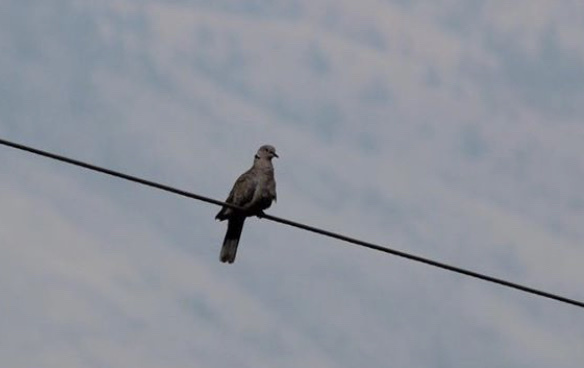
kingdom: Animalia
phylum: Chordata
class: Aves
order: Columbiformes
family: Columbidae
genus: Streptopelia
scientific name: Streptopelia decaocto
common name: Eurasian collared dove
